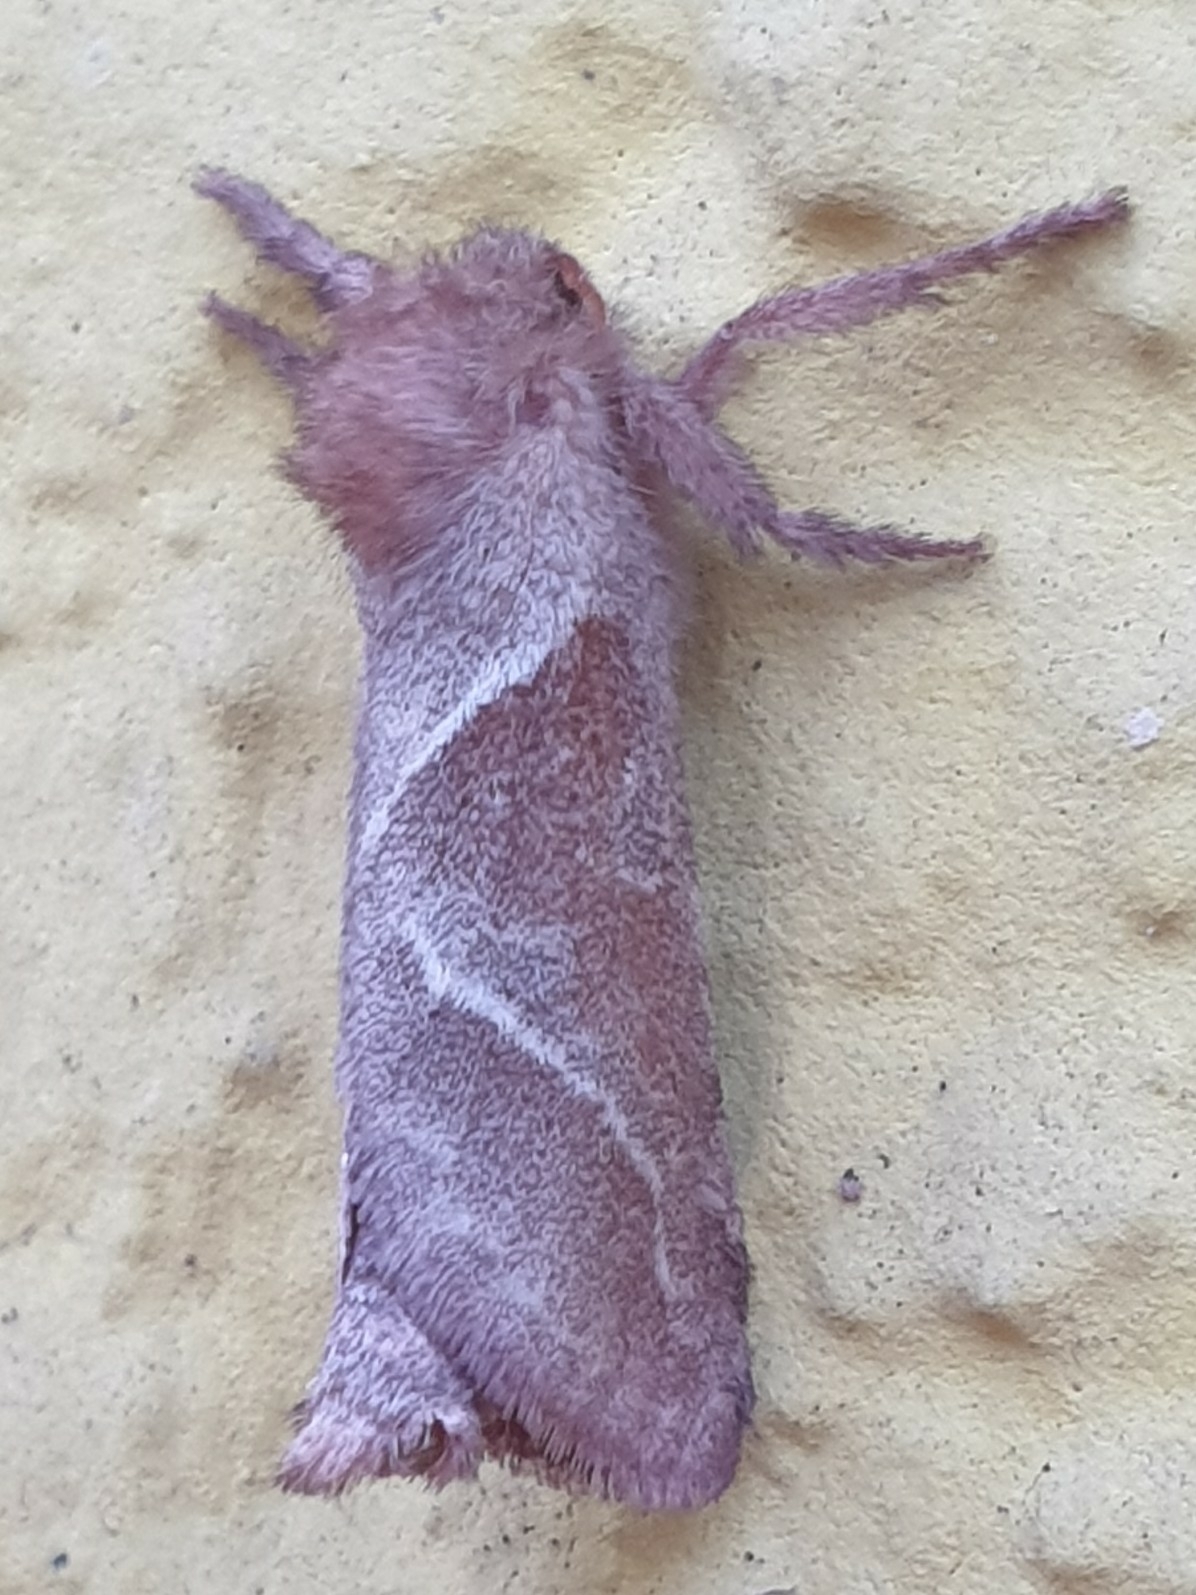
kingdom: Animalia
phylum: Arthropoda
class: Insecta
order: Lepidoptera
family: Hepialidae
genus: Triodia
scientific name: Triodia sylvina
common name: Orange swift
